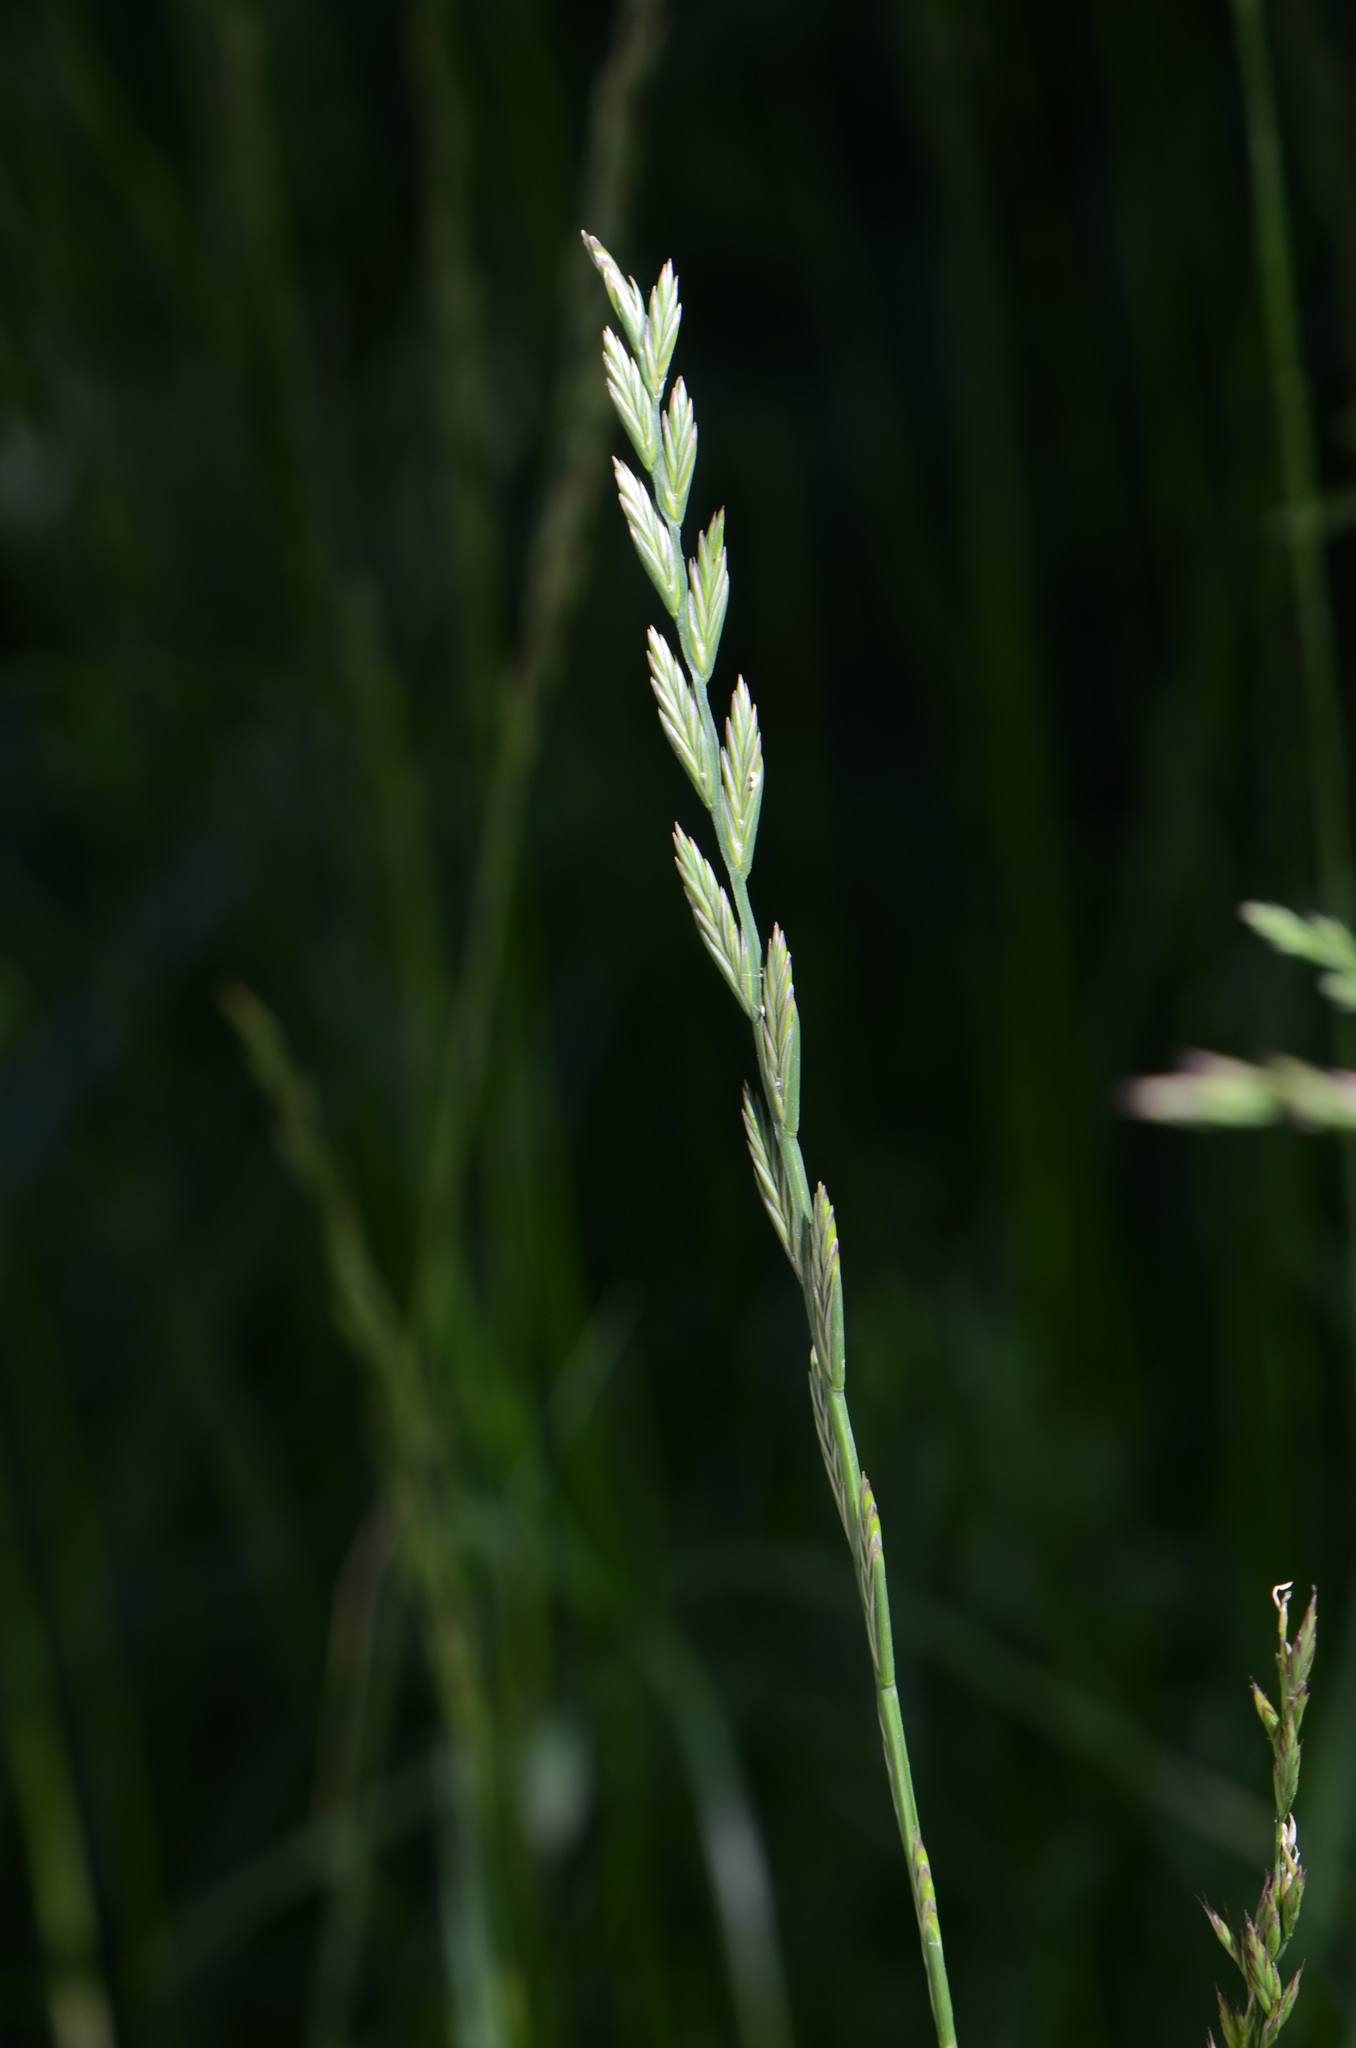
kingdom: Plantae
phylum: Tracheophyta
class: Liliopsida
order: Poales
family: Poaceae
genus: Lolium
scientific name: Lolium perenne
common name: Perennial ryegrass
